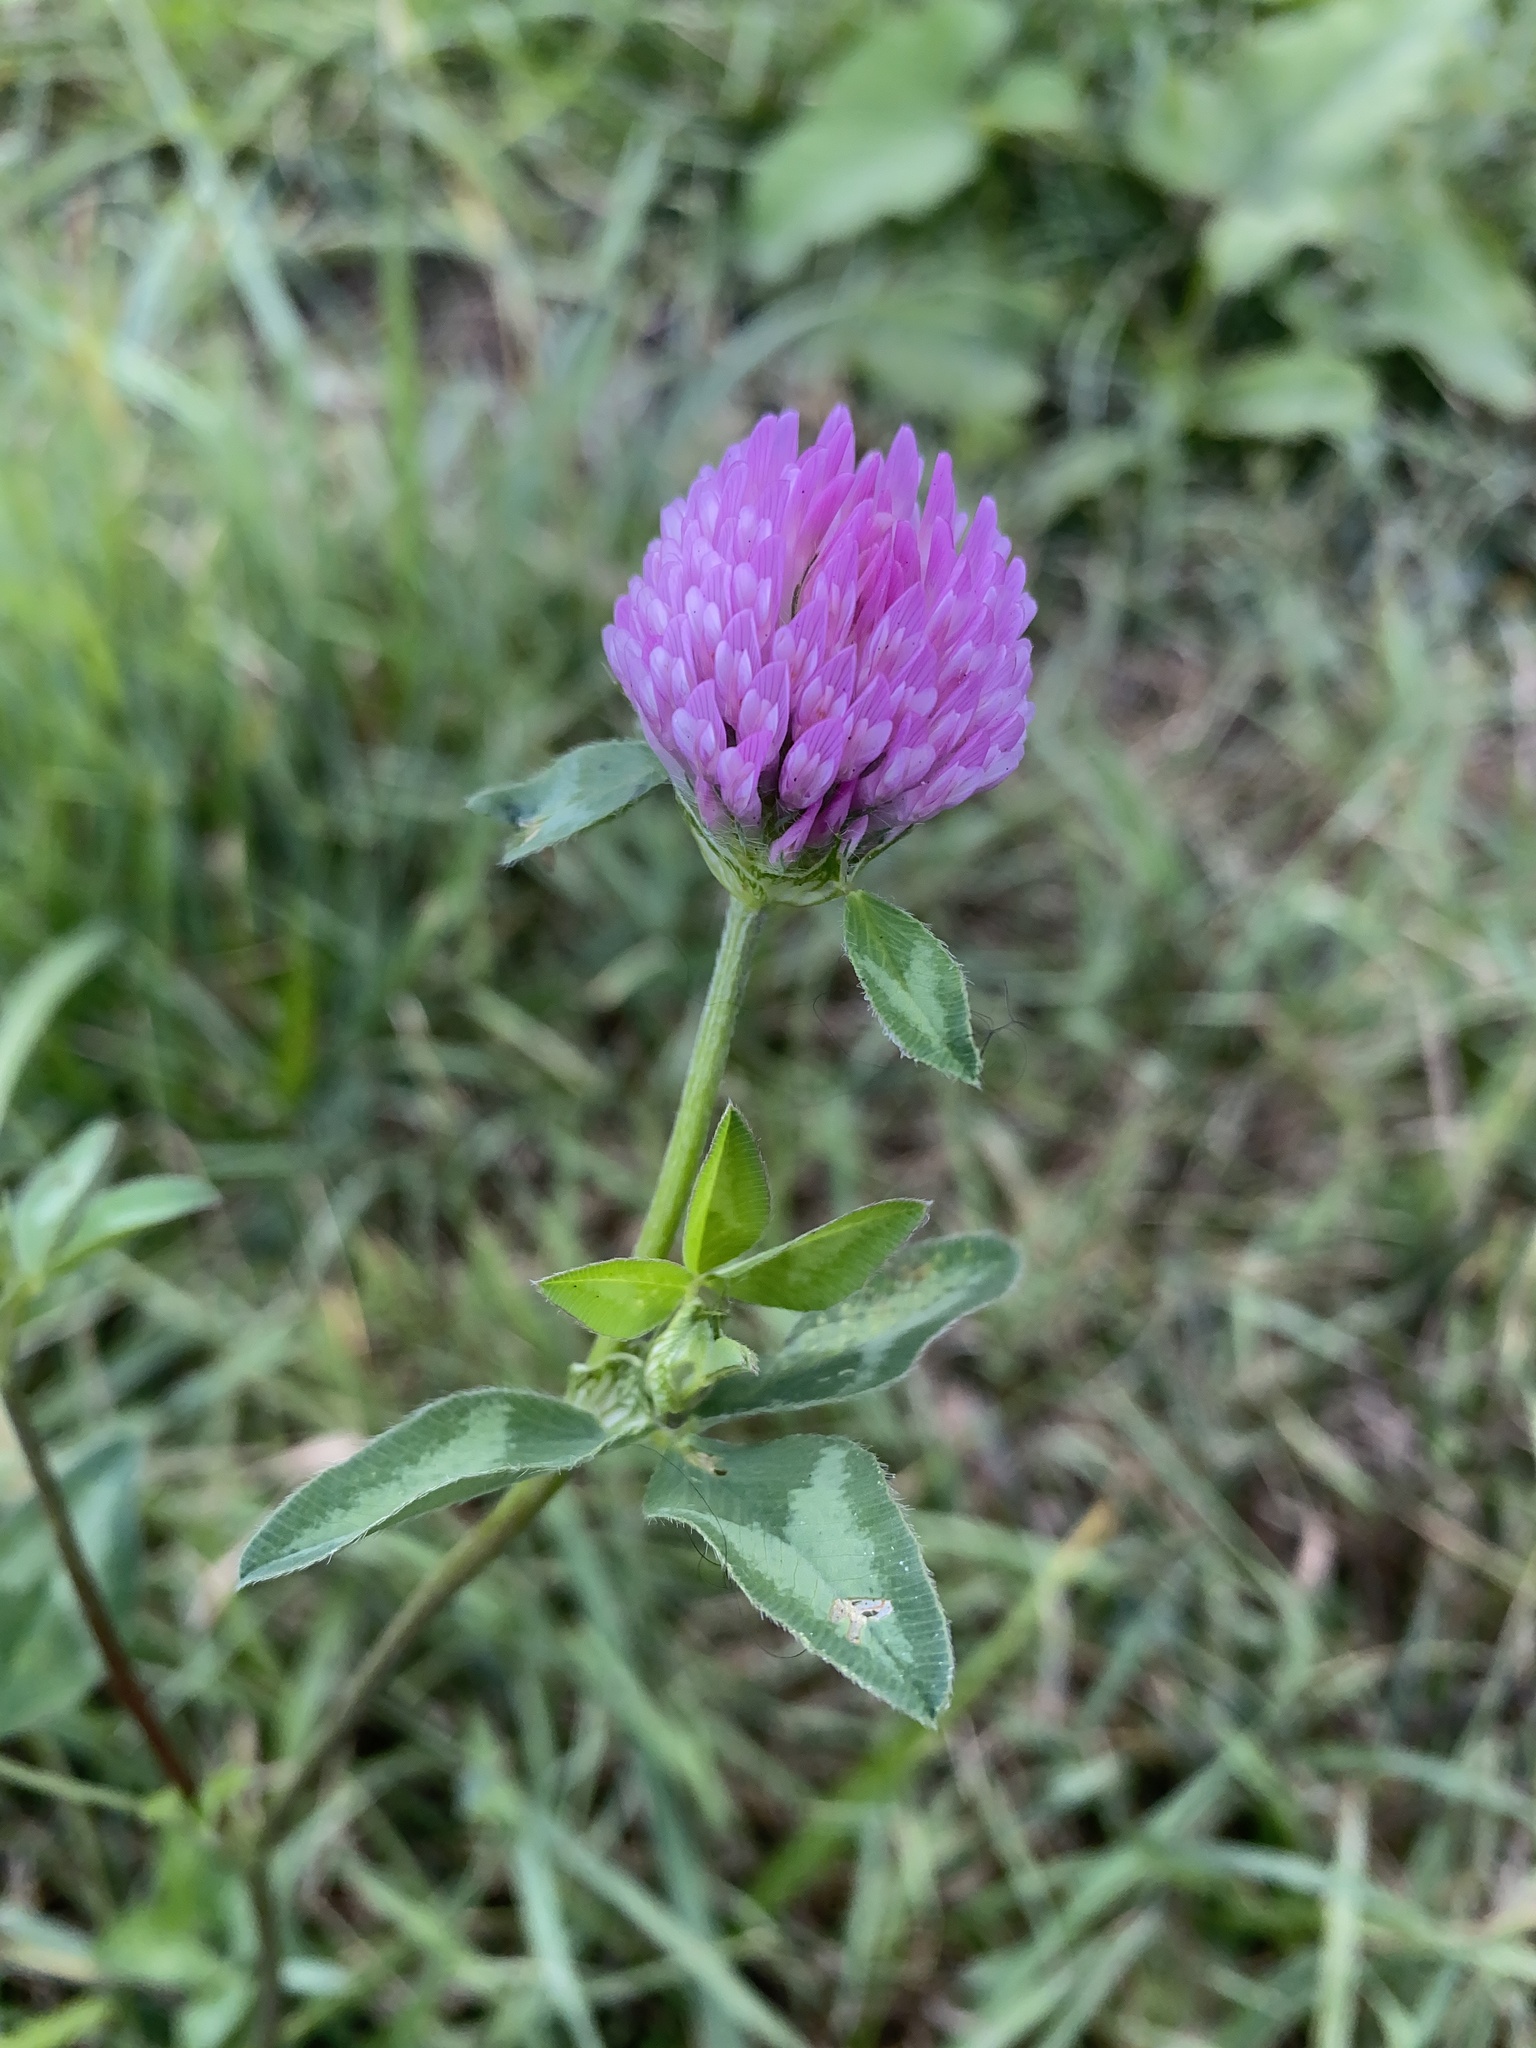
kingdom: Plantae
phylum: Tracheophyta
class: Magnoliopsida
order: Fabales
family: Fabaceae
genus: Trifolium
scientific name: Trifolium pratense
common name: Red clover
